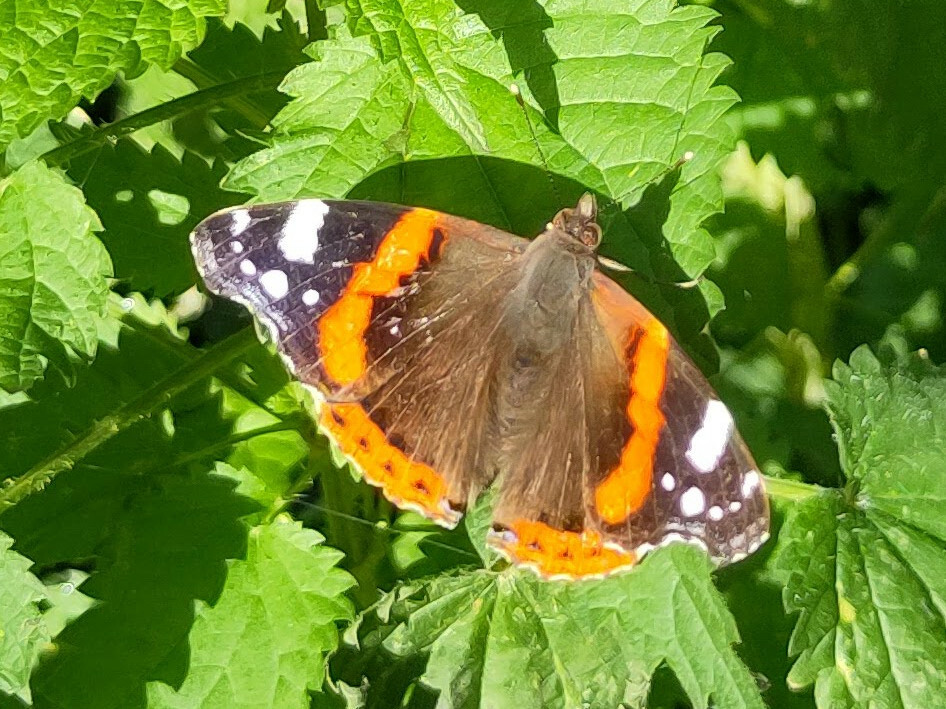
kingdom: Animalia
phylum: Arthropoda
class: Insecta
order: Lepidoptera
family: Nymphalidae
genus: Vanessa
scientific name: Vanessa atalanta
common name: Red admiral
